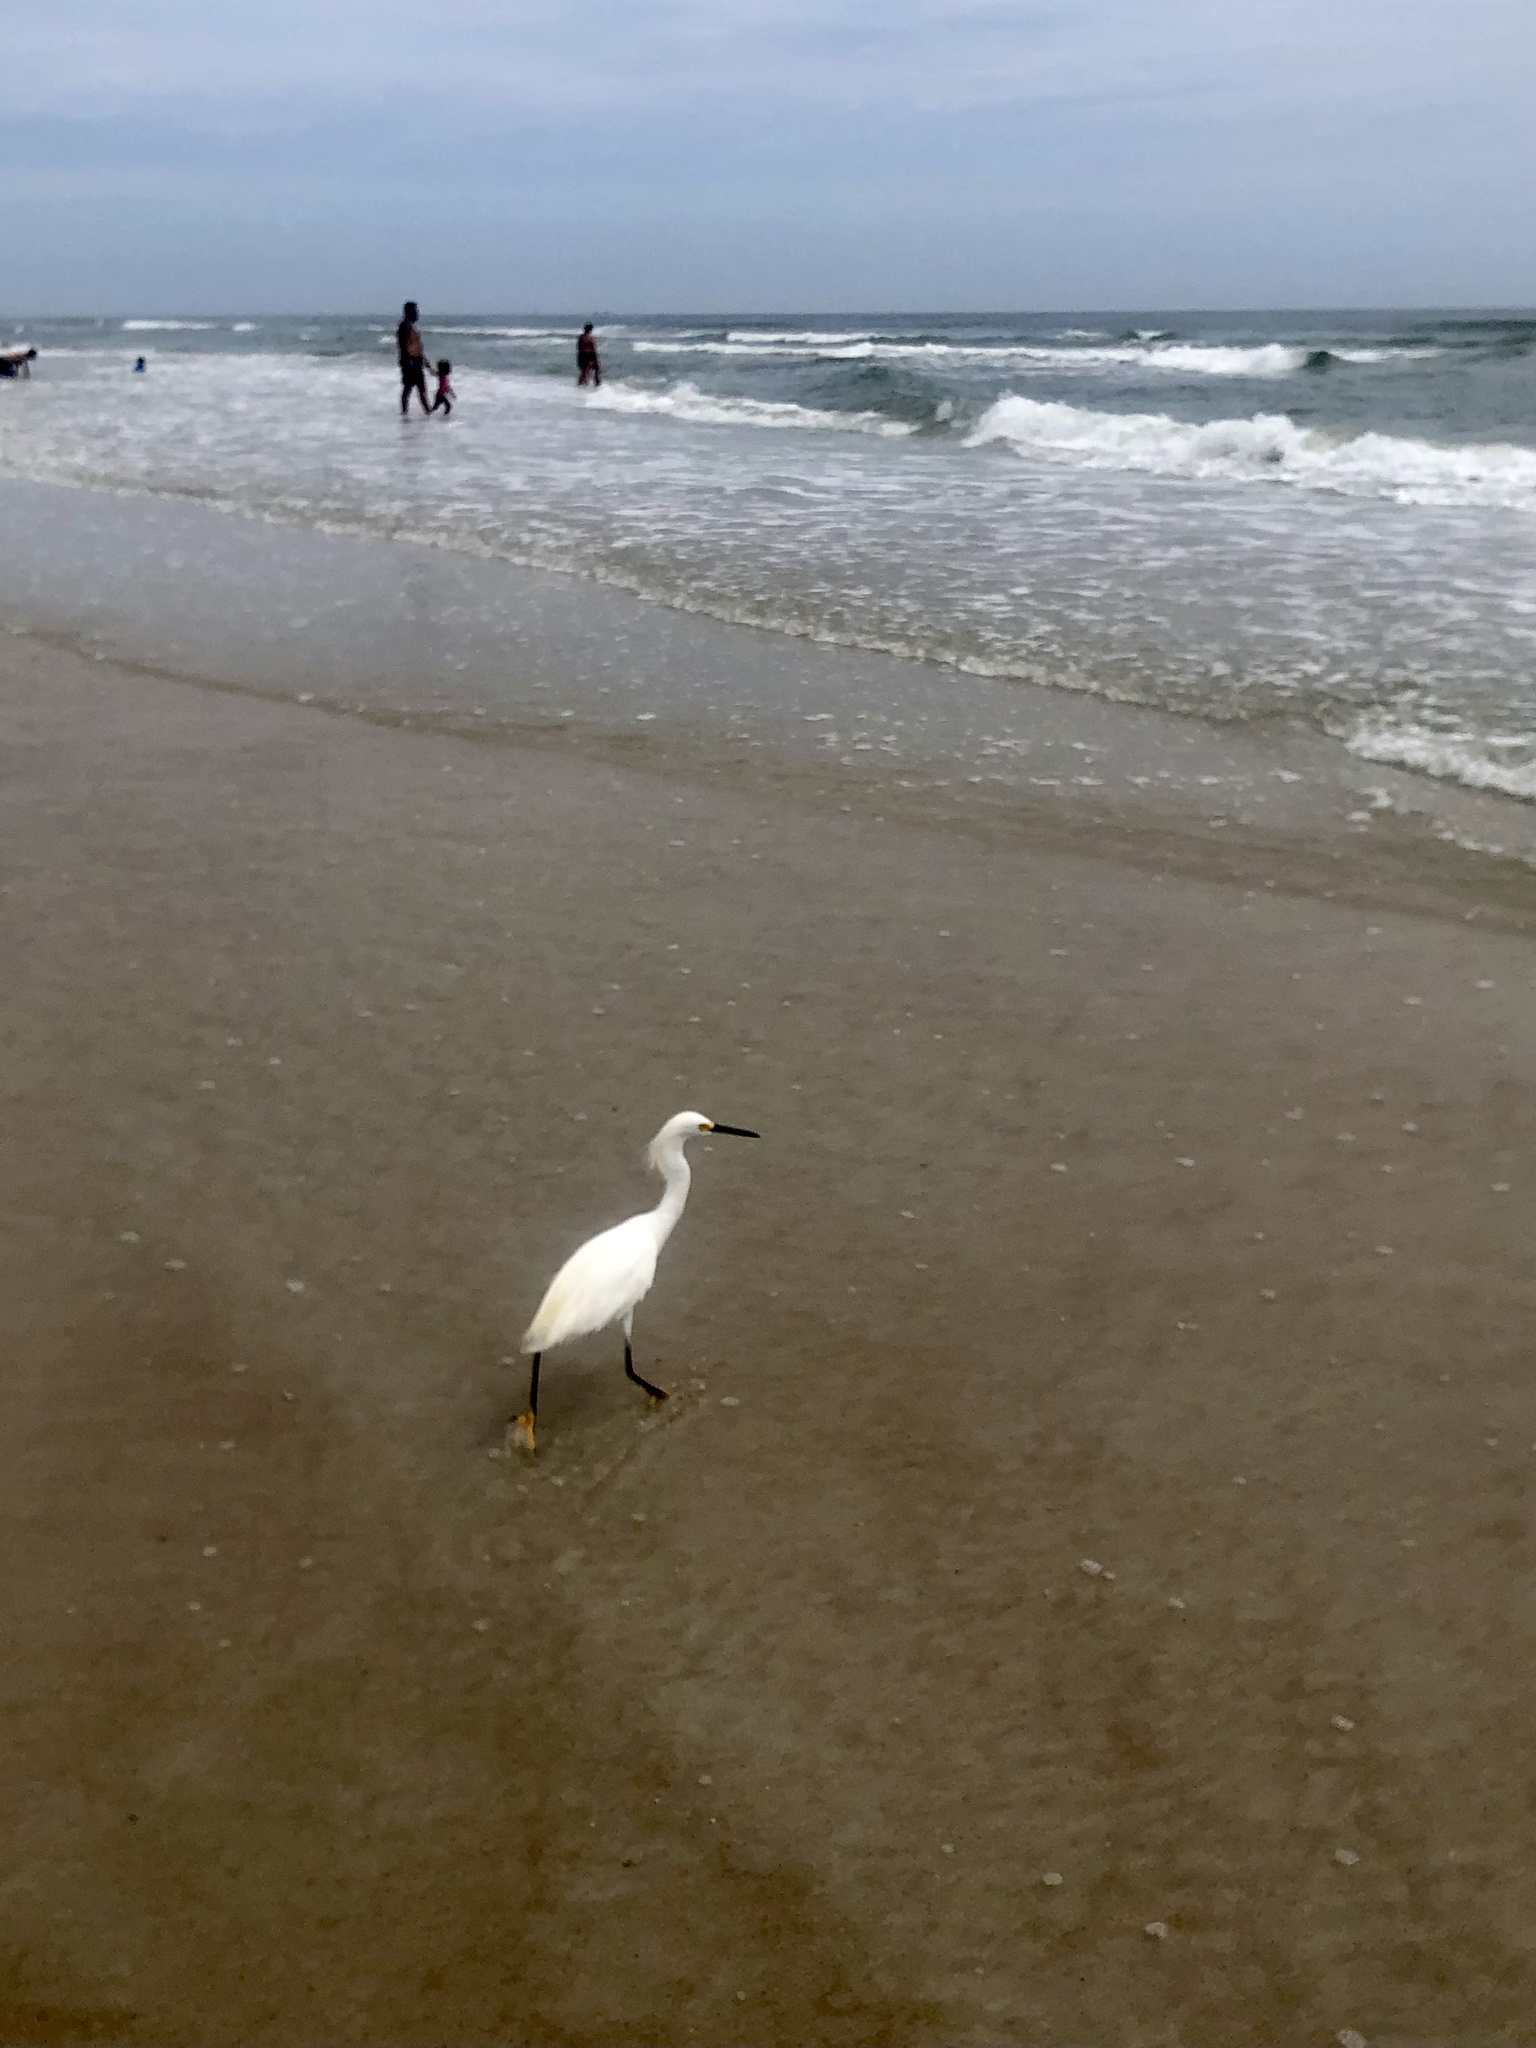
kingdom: Animalia
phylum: Chordata
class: Aves
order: Pelecaniformes
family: Ardeidae
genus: Egretta
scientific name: Egretta thula
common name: Snowy egret
